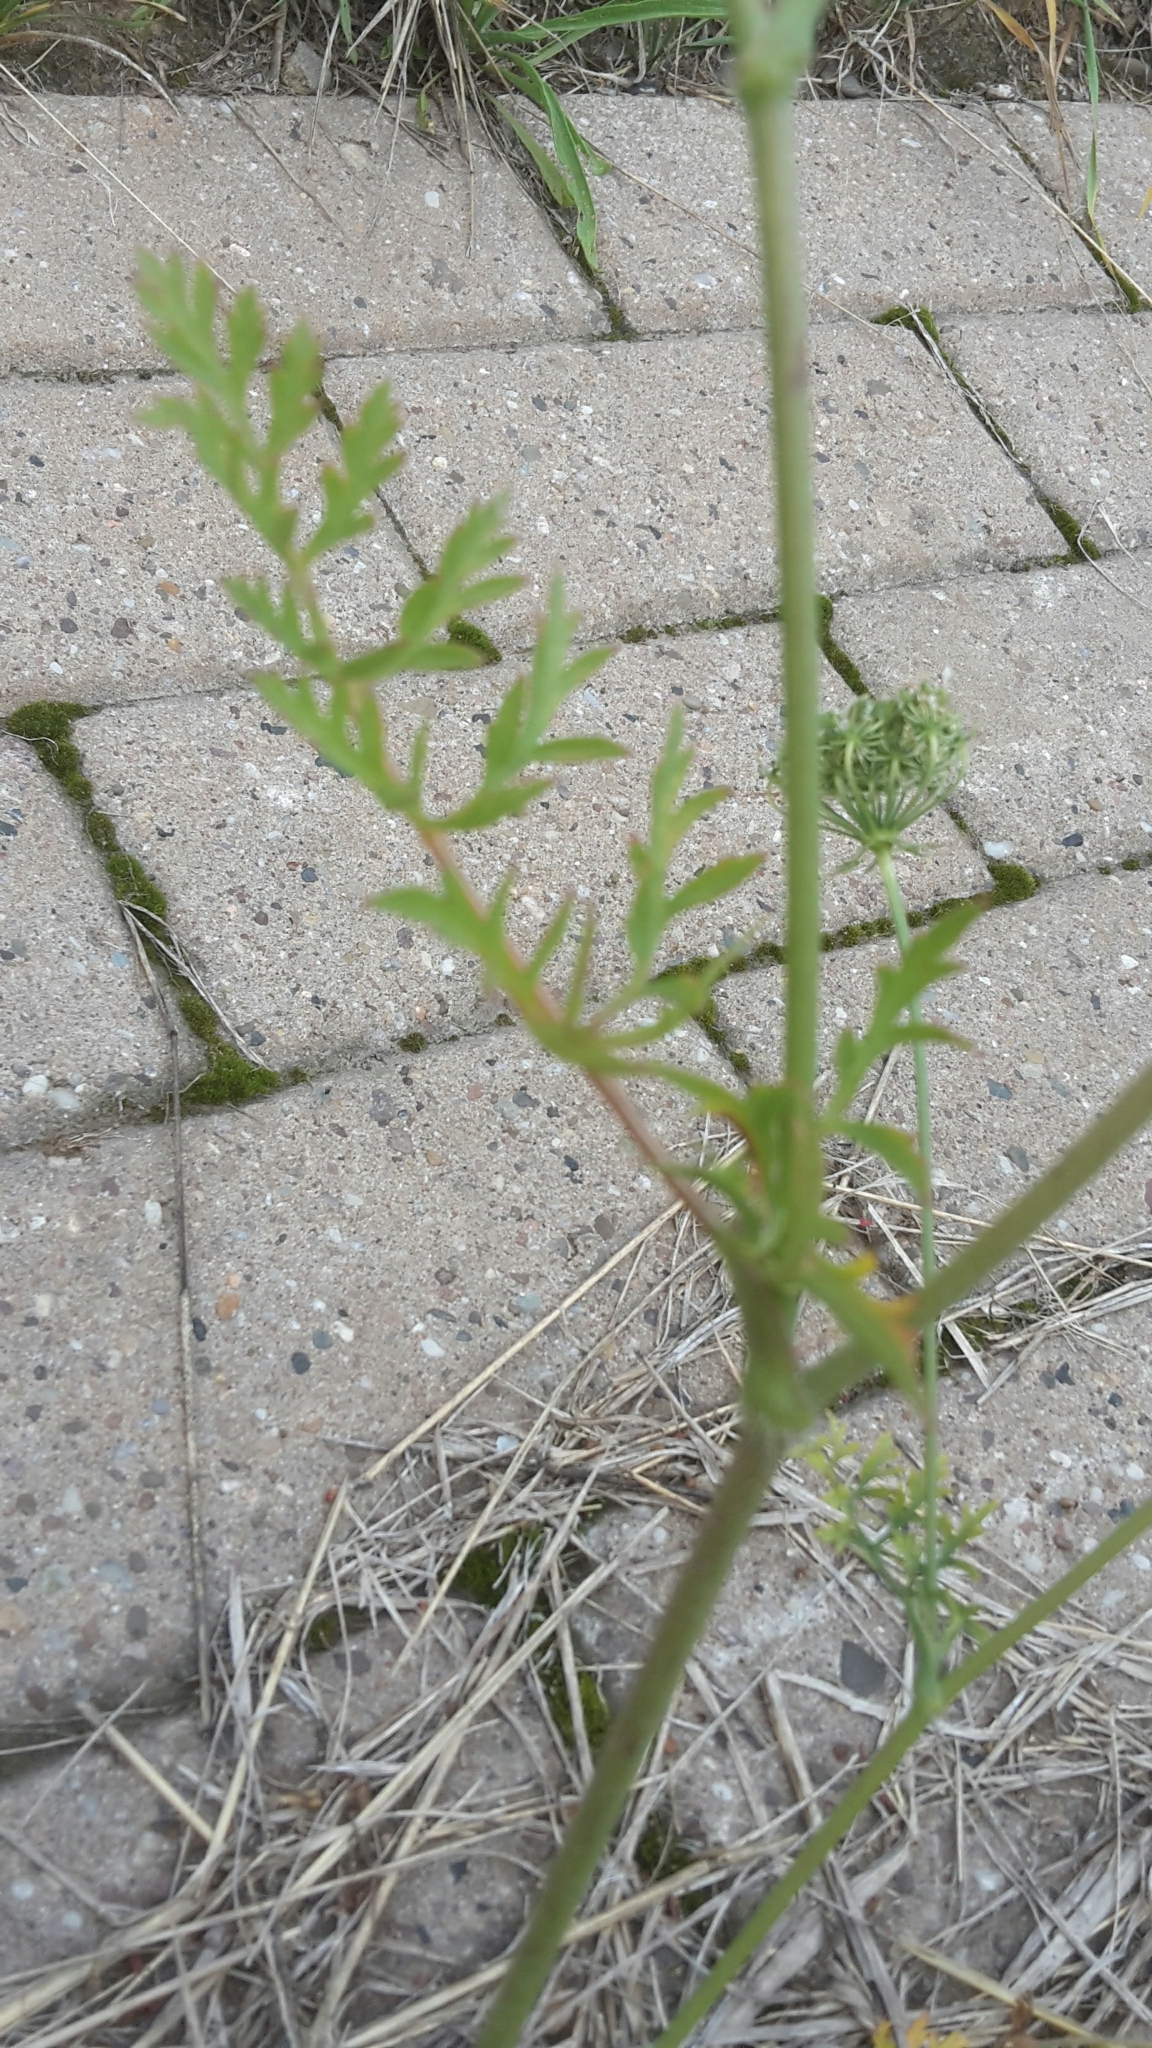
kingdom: Plantae
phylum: Tracheophyta
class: Magnoliopsida
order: Apiales
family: Apiaceae
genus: Daucus
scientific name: Daucus carota
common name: Wild carrot
